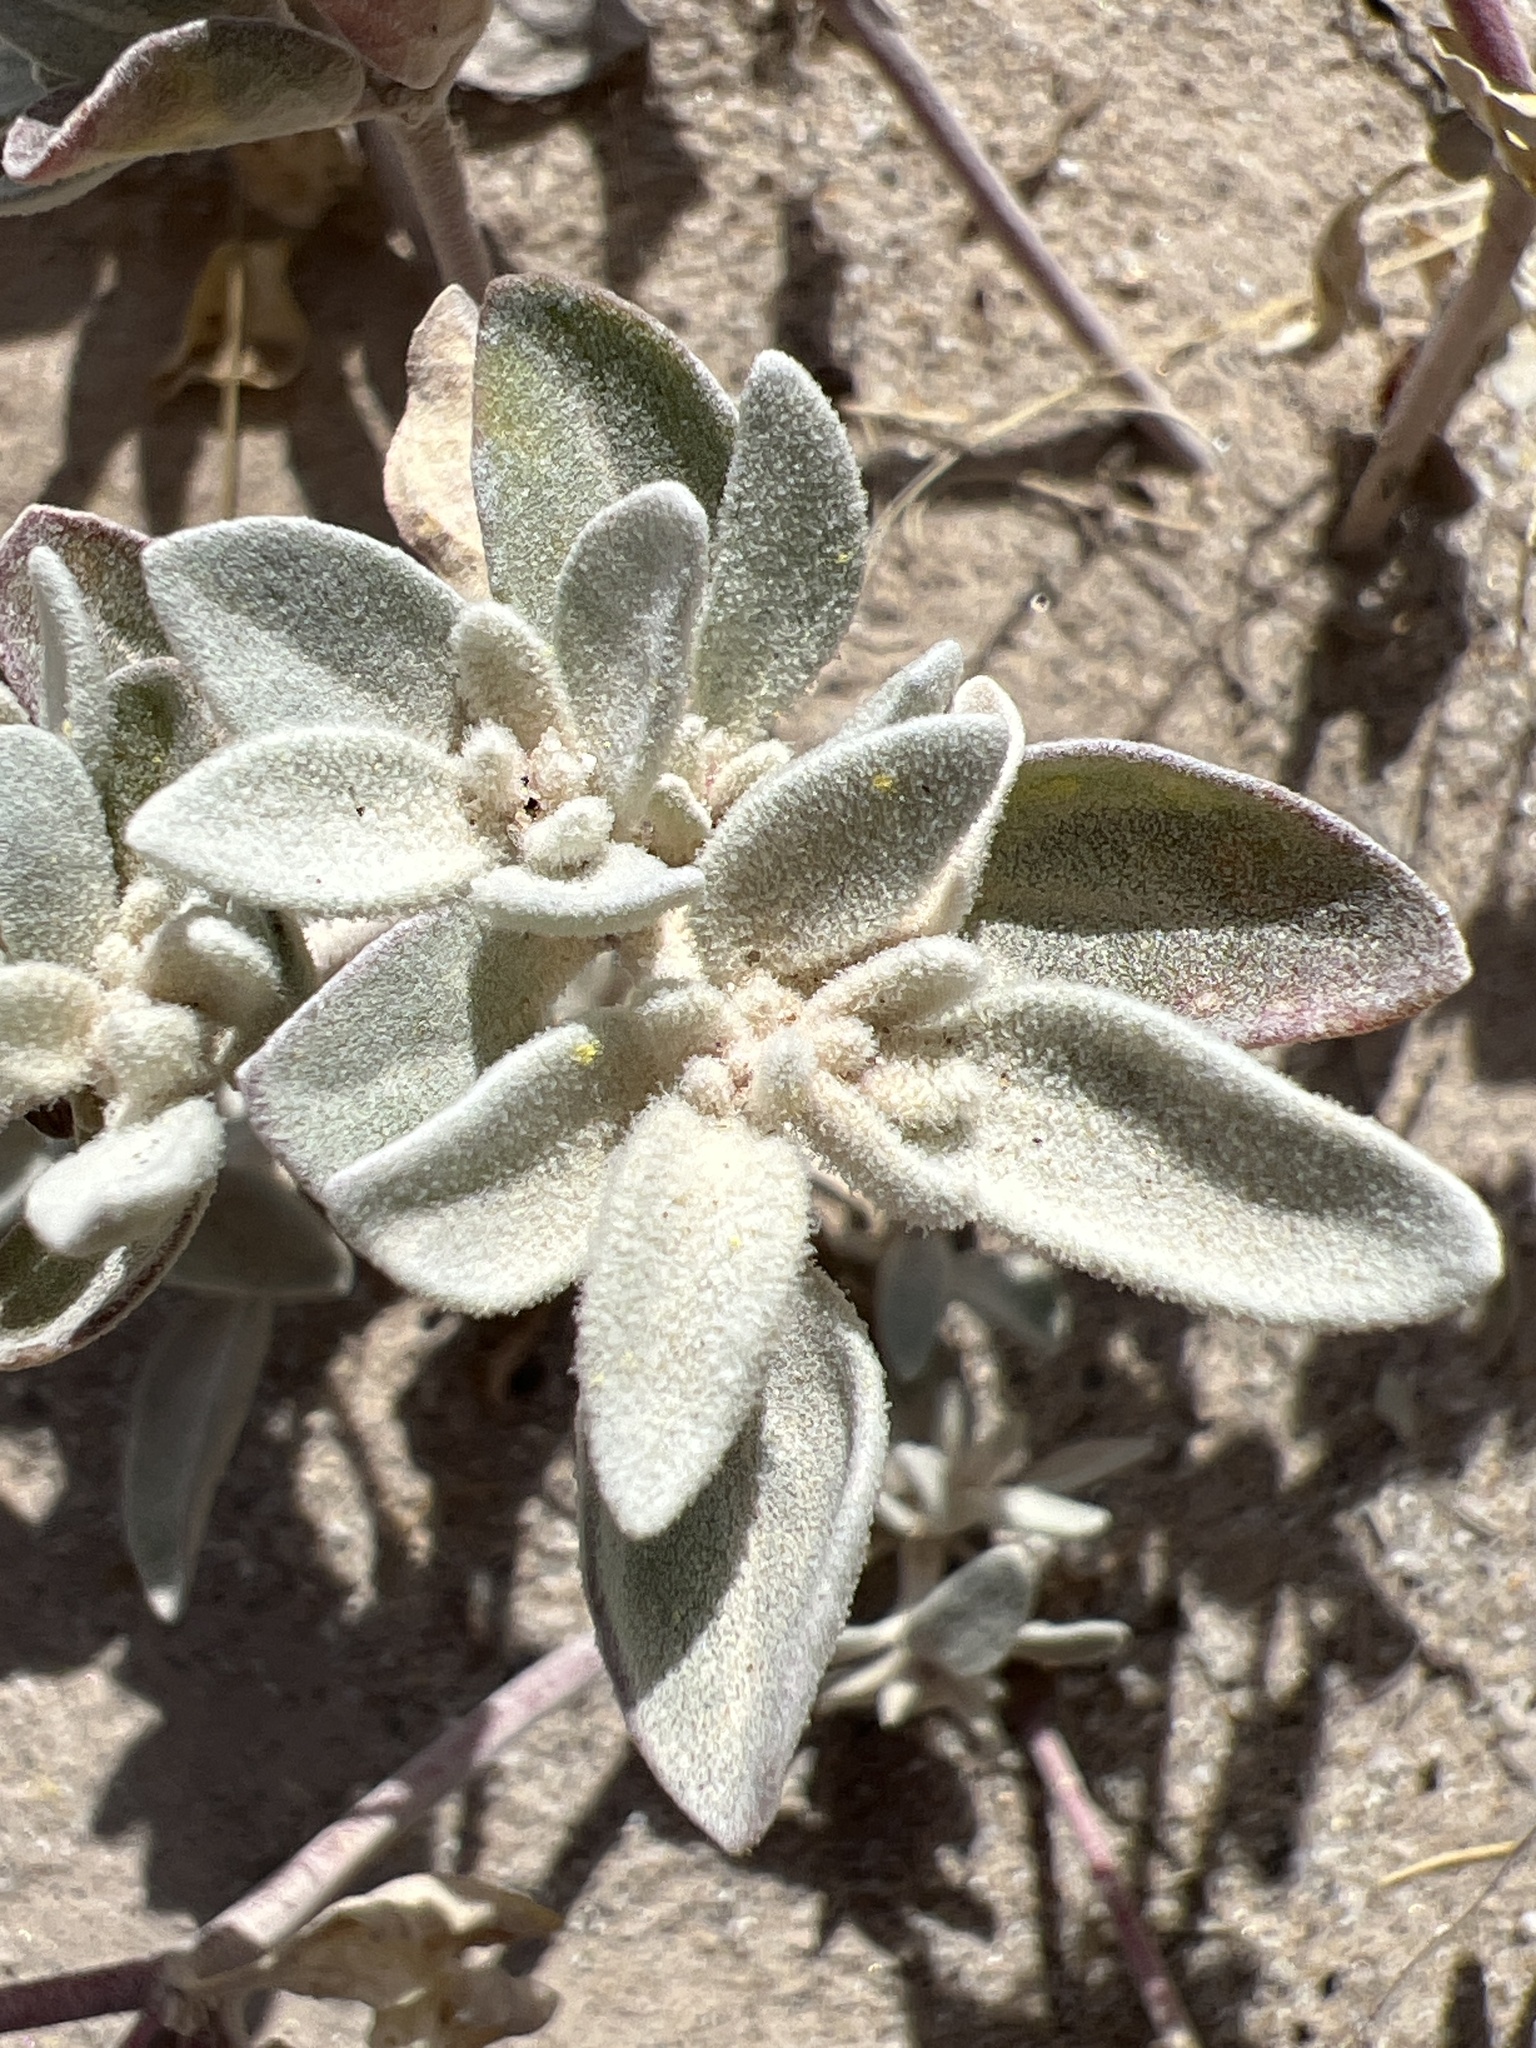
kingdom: Plantae
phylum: Tracheophyta
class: Magnoliopsida
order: Caryophyllales
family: Amaranthaceae
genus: Tidestromia
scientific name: Tidestromia suffruticosa
